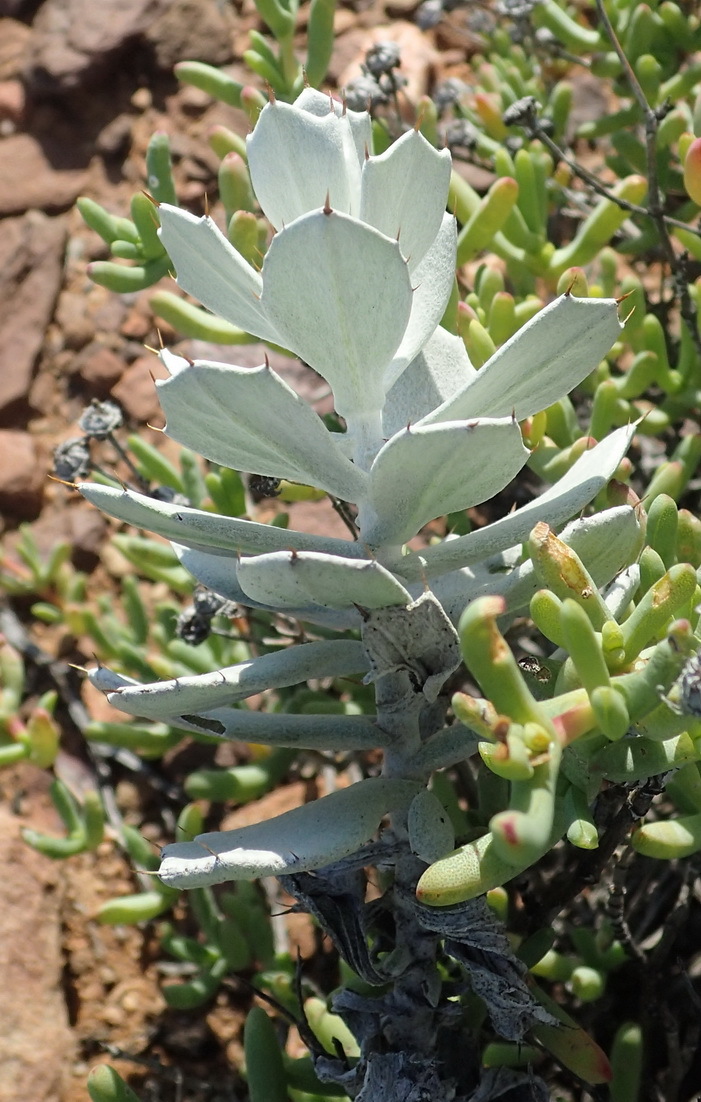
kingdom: Plantae
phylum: Tracheophyta
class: Magnoliopsida
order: Asterales
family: Asteraceae
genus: Berkheya
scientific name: Berkheya cuneata
